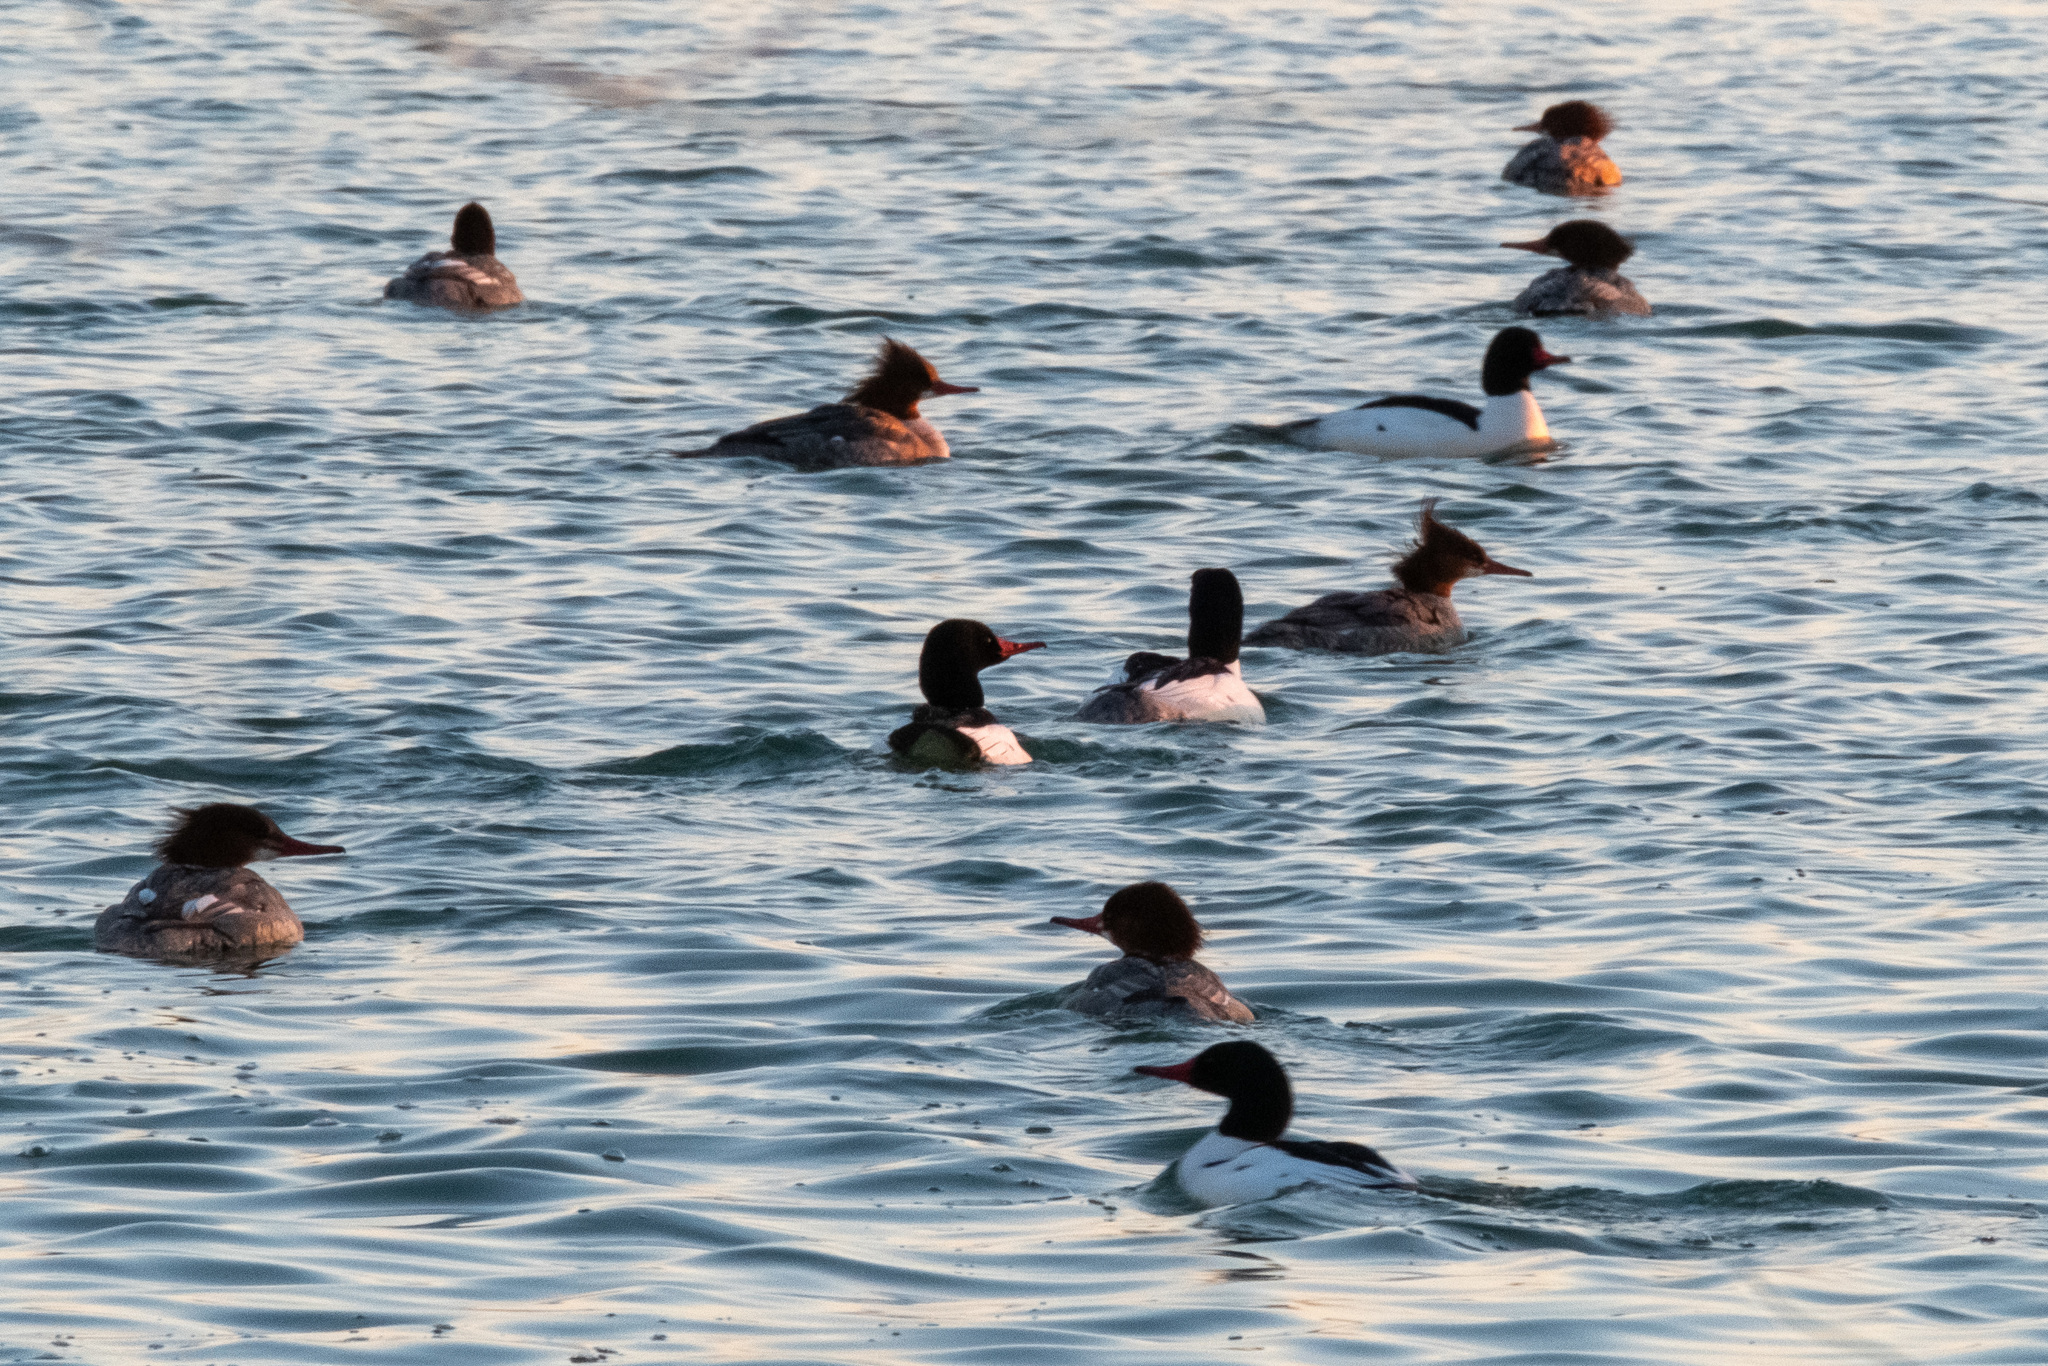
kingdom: Animalia
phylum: Chordata
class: Aves
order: Anseriformes
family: Anatidae
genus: Mergus
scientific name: Mergus merganser
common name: Common merganser
